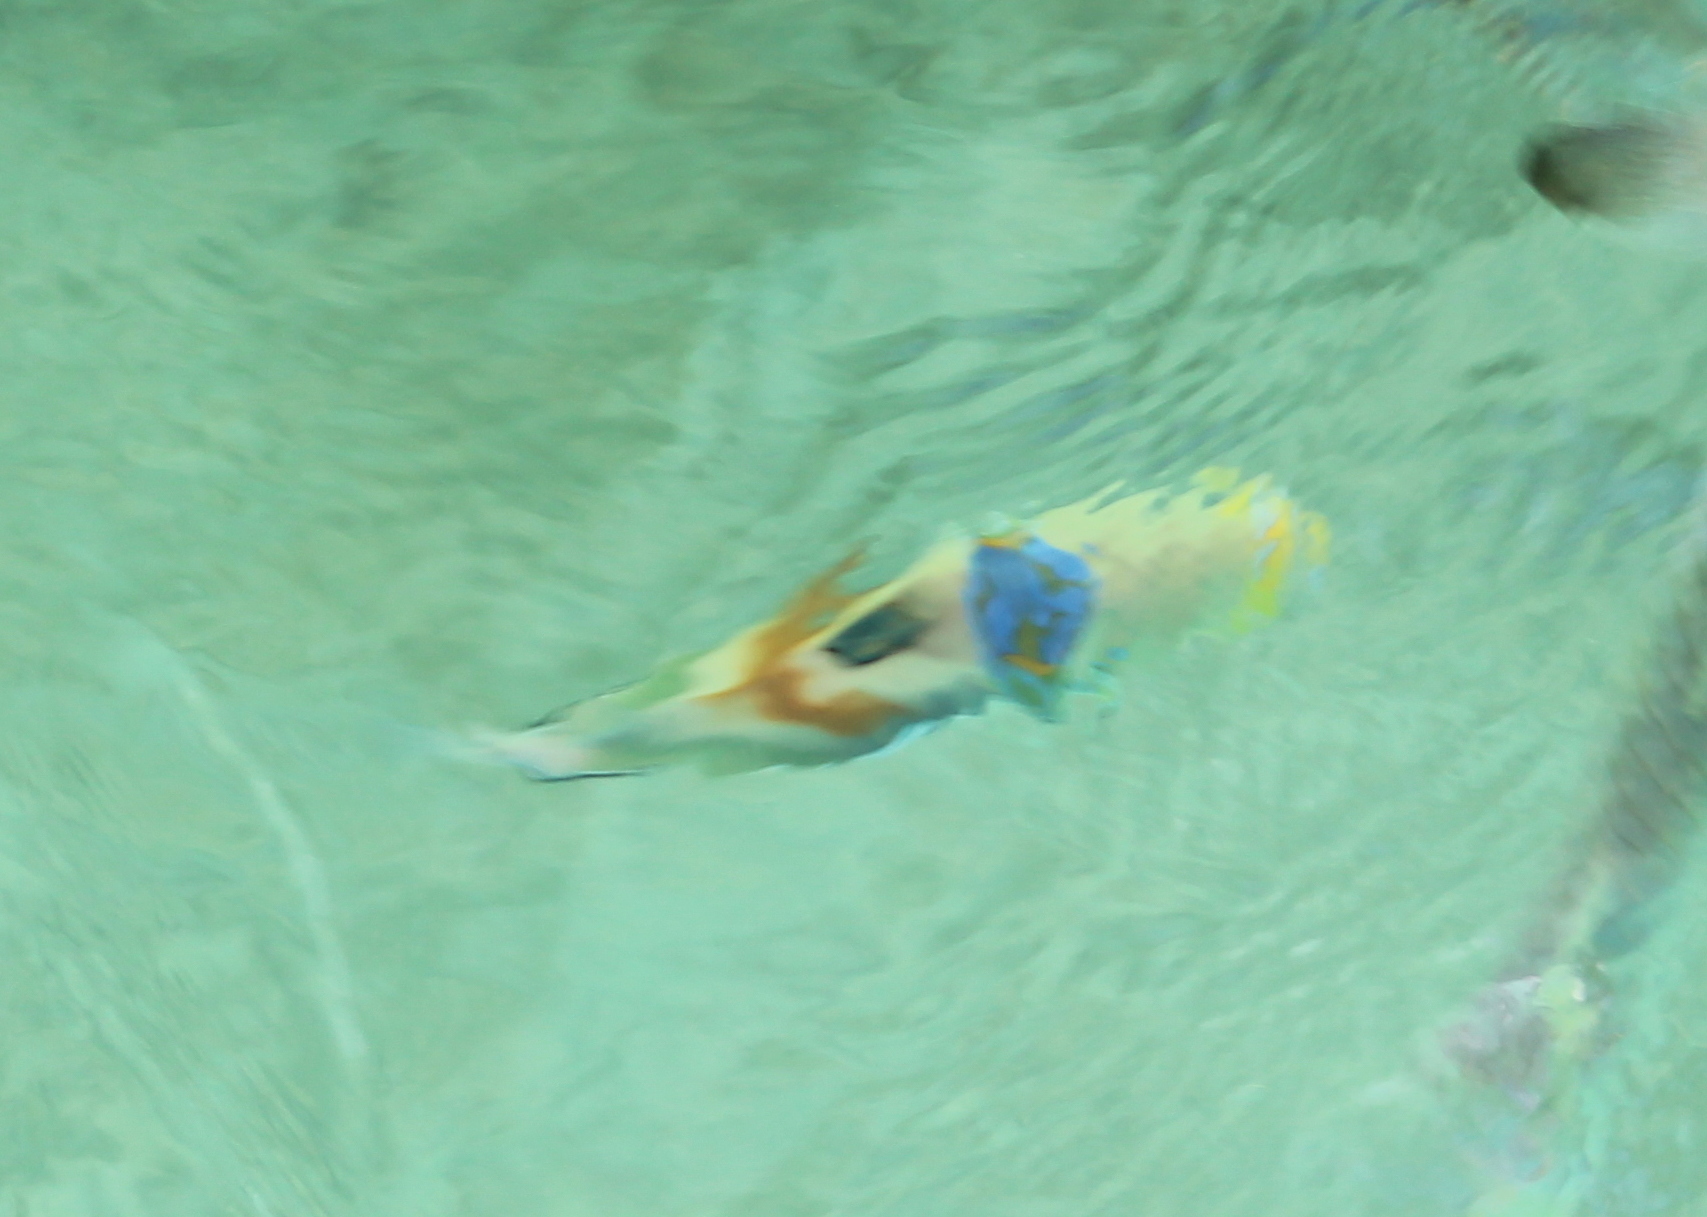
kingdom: Animalia
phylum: Chordata
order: Tetraodontiformes
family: Balistidae
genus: Rhinecanthus
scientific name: Rhinecanthus aculeatus
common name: White-banded triggerfish
